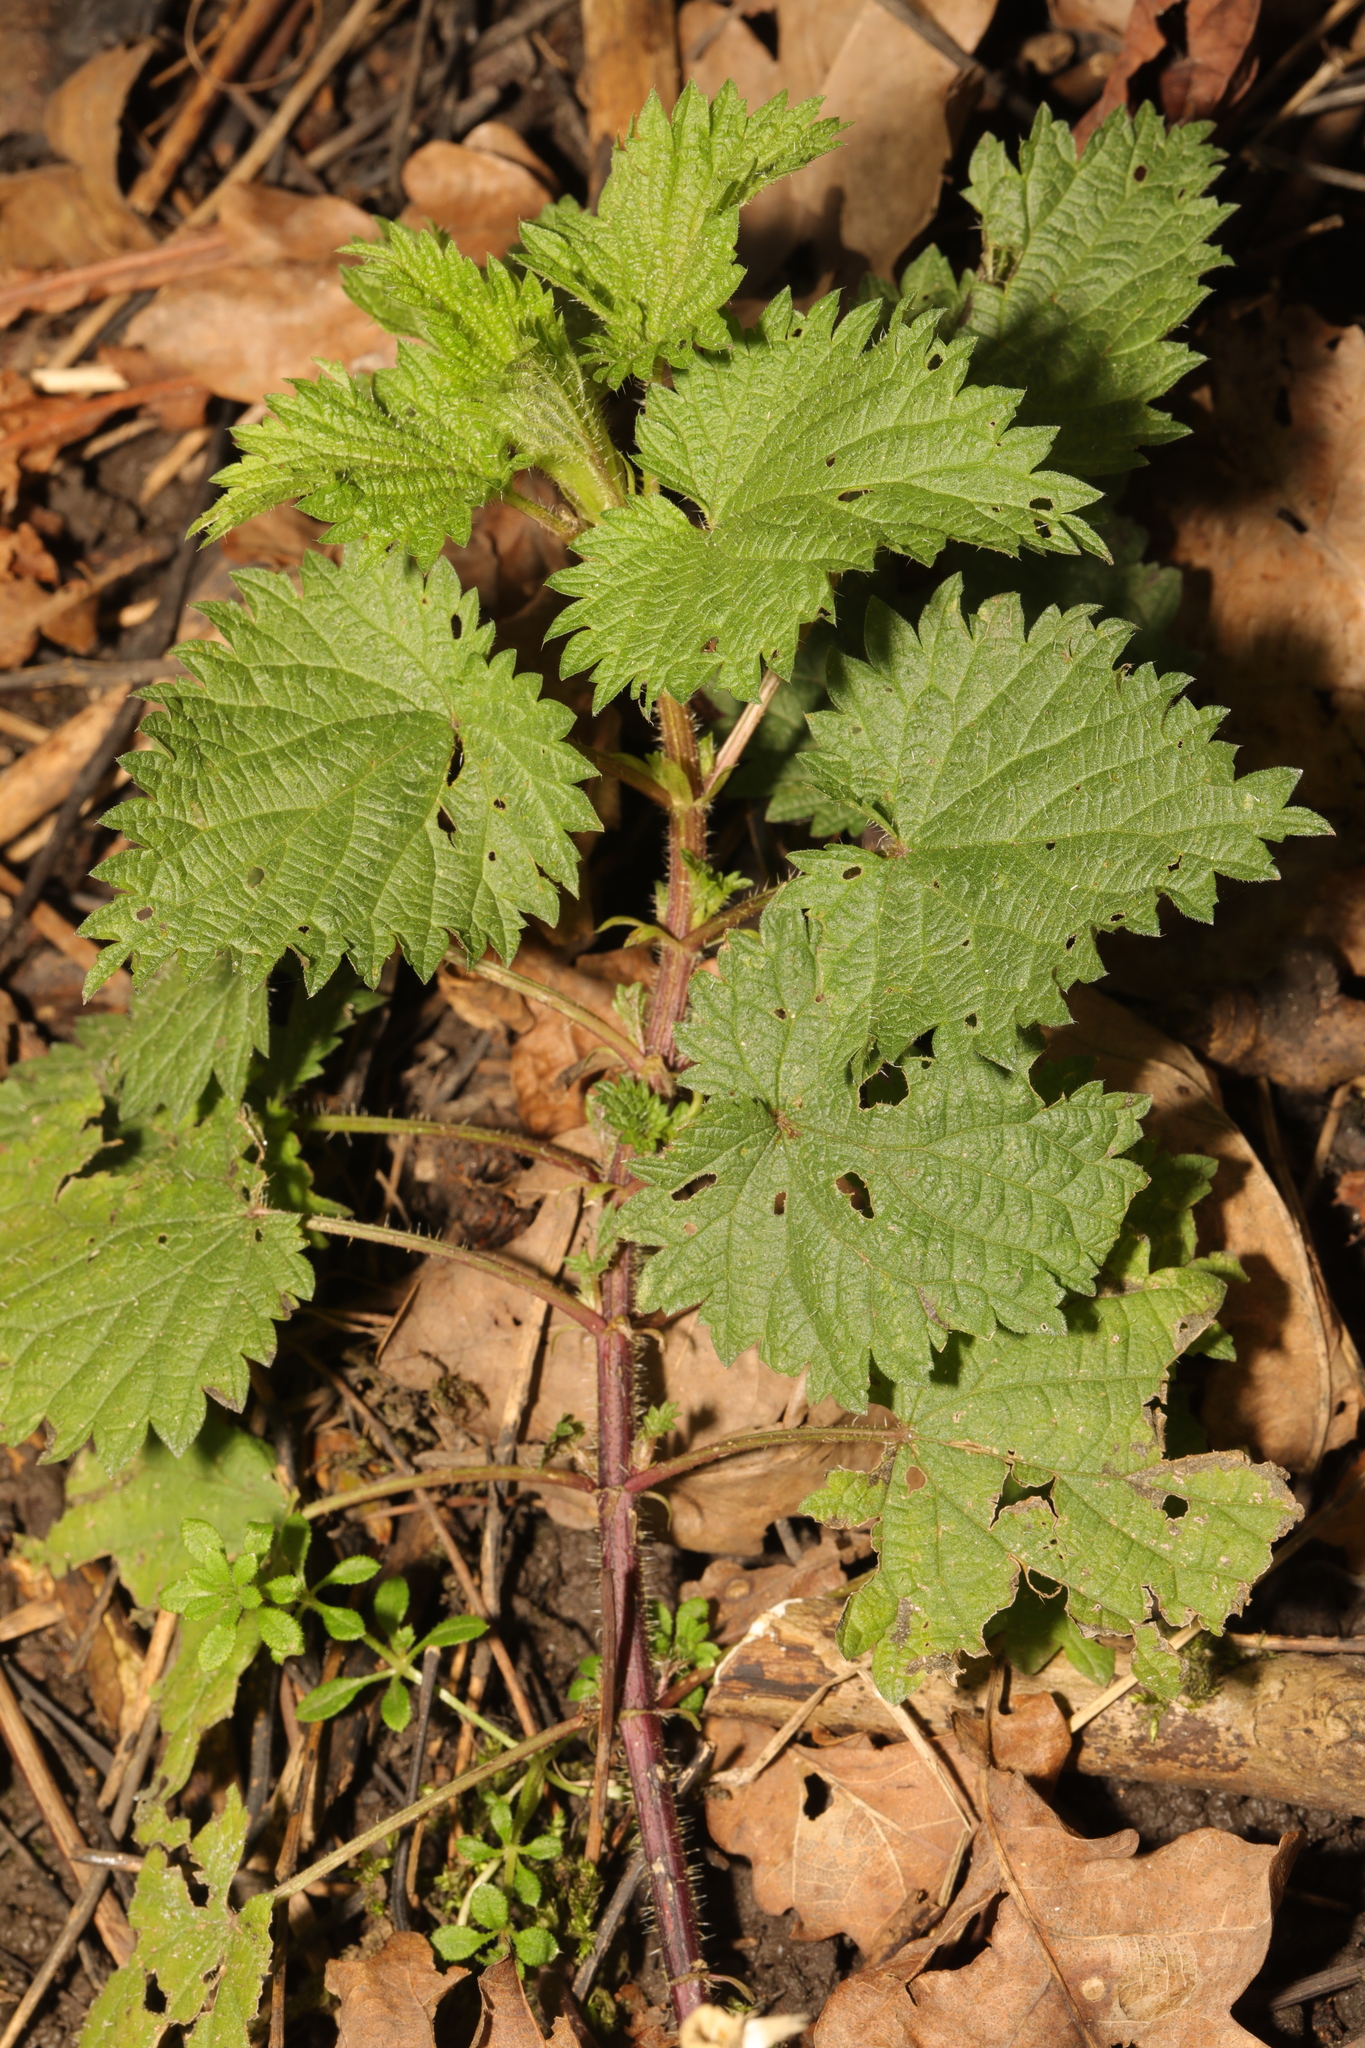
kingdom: Plantae
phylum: Tracheophyta
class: Magnoliopsida
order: Rosales
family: Urticaceae
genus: Urtica
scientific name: Urtica dioica
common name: Common nettle
